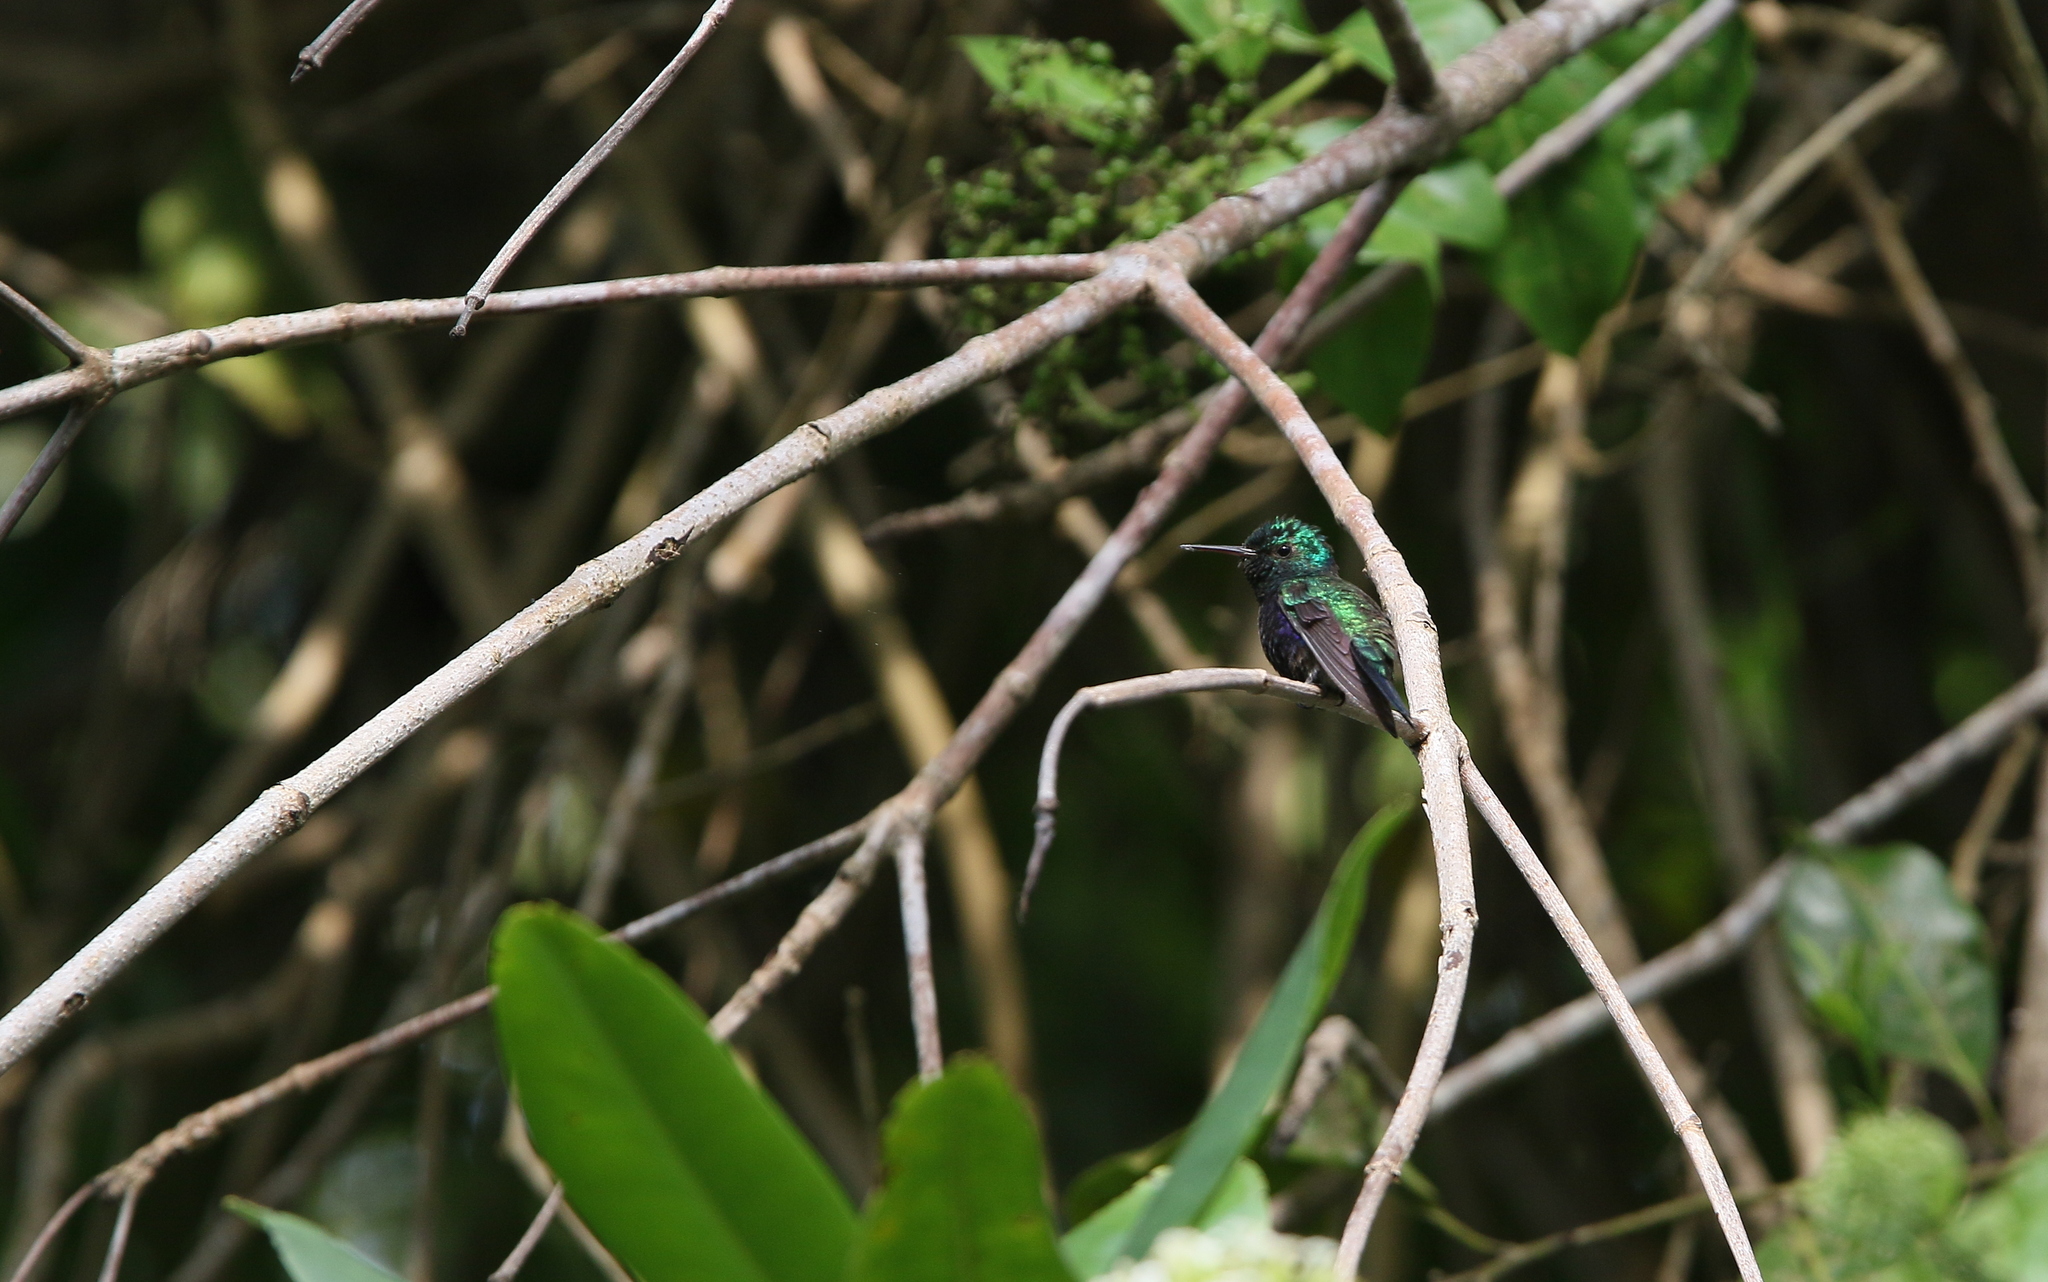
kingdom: Animalia
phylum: Chordata
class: Aves
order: Apodiformes
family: Trochilidae
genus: Chlorestes
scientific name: Chlorestes julie
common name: Violet-bellied hummingbird
